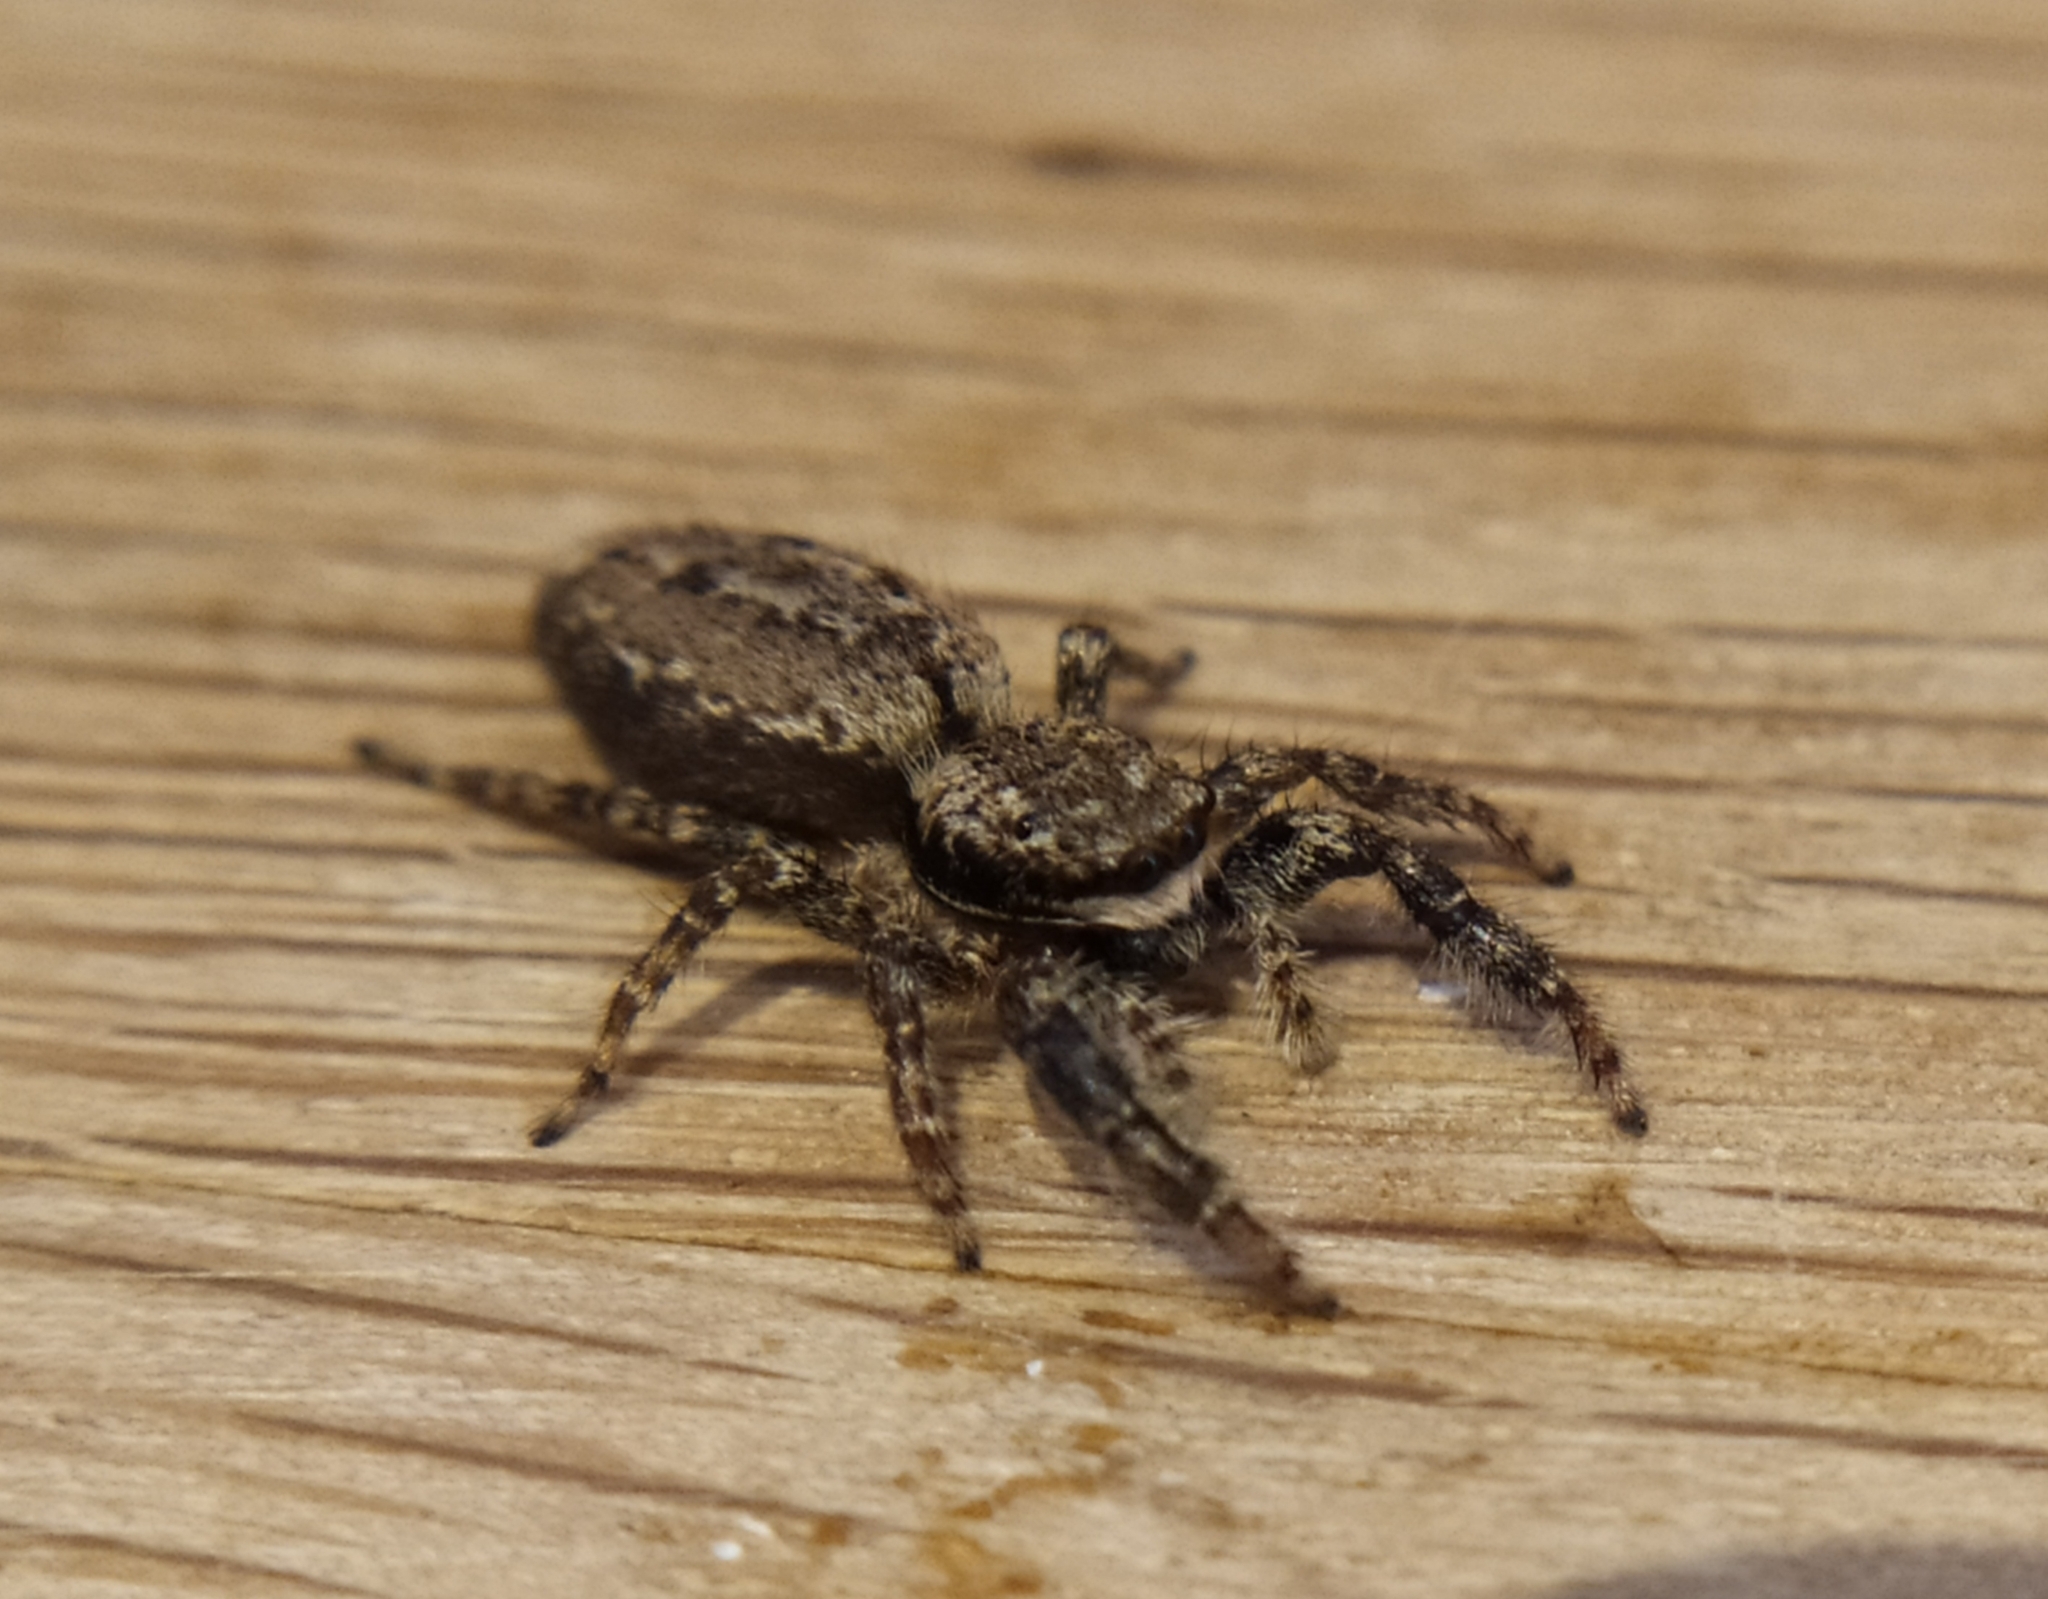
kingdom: Animalia
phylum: Arthropoda
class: Arachnida
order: Araneae
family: Salticidae
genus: Marpissa
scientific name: Marpissa muscosa
